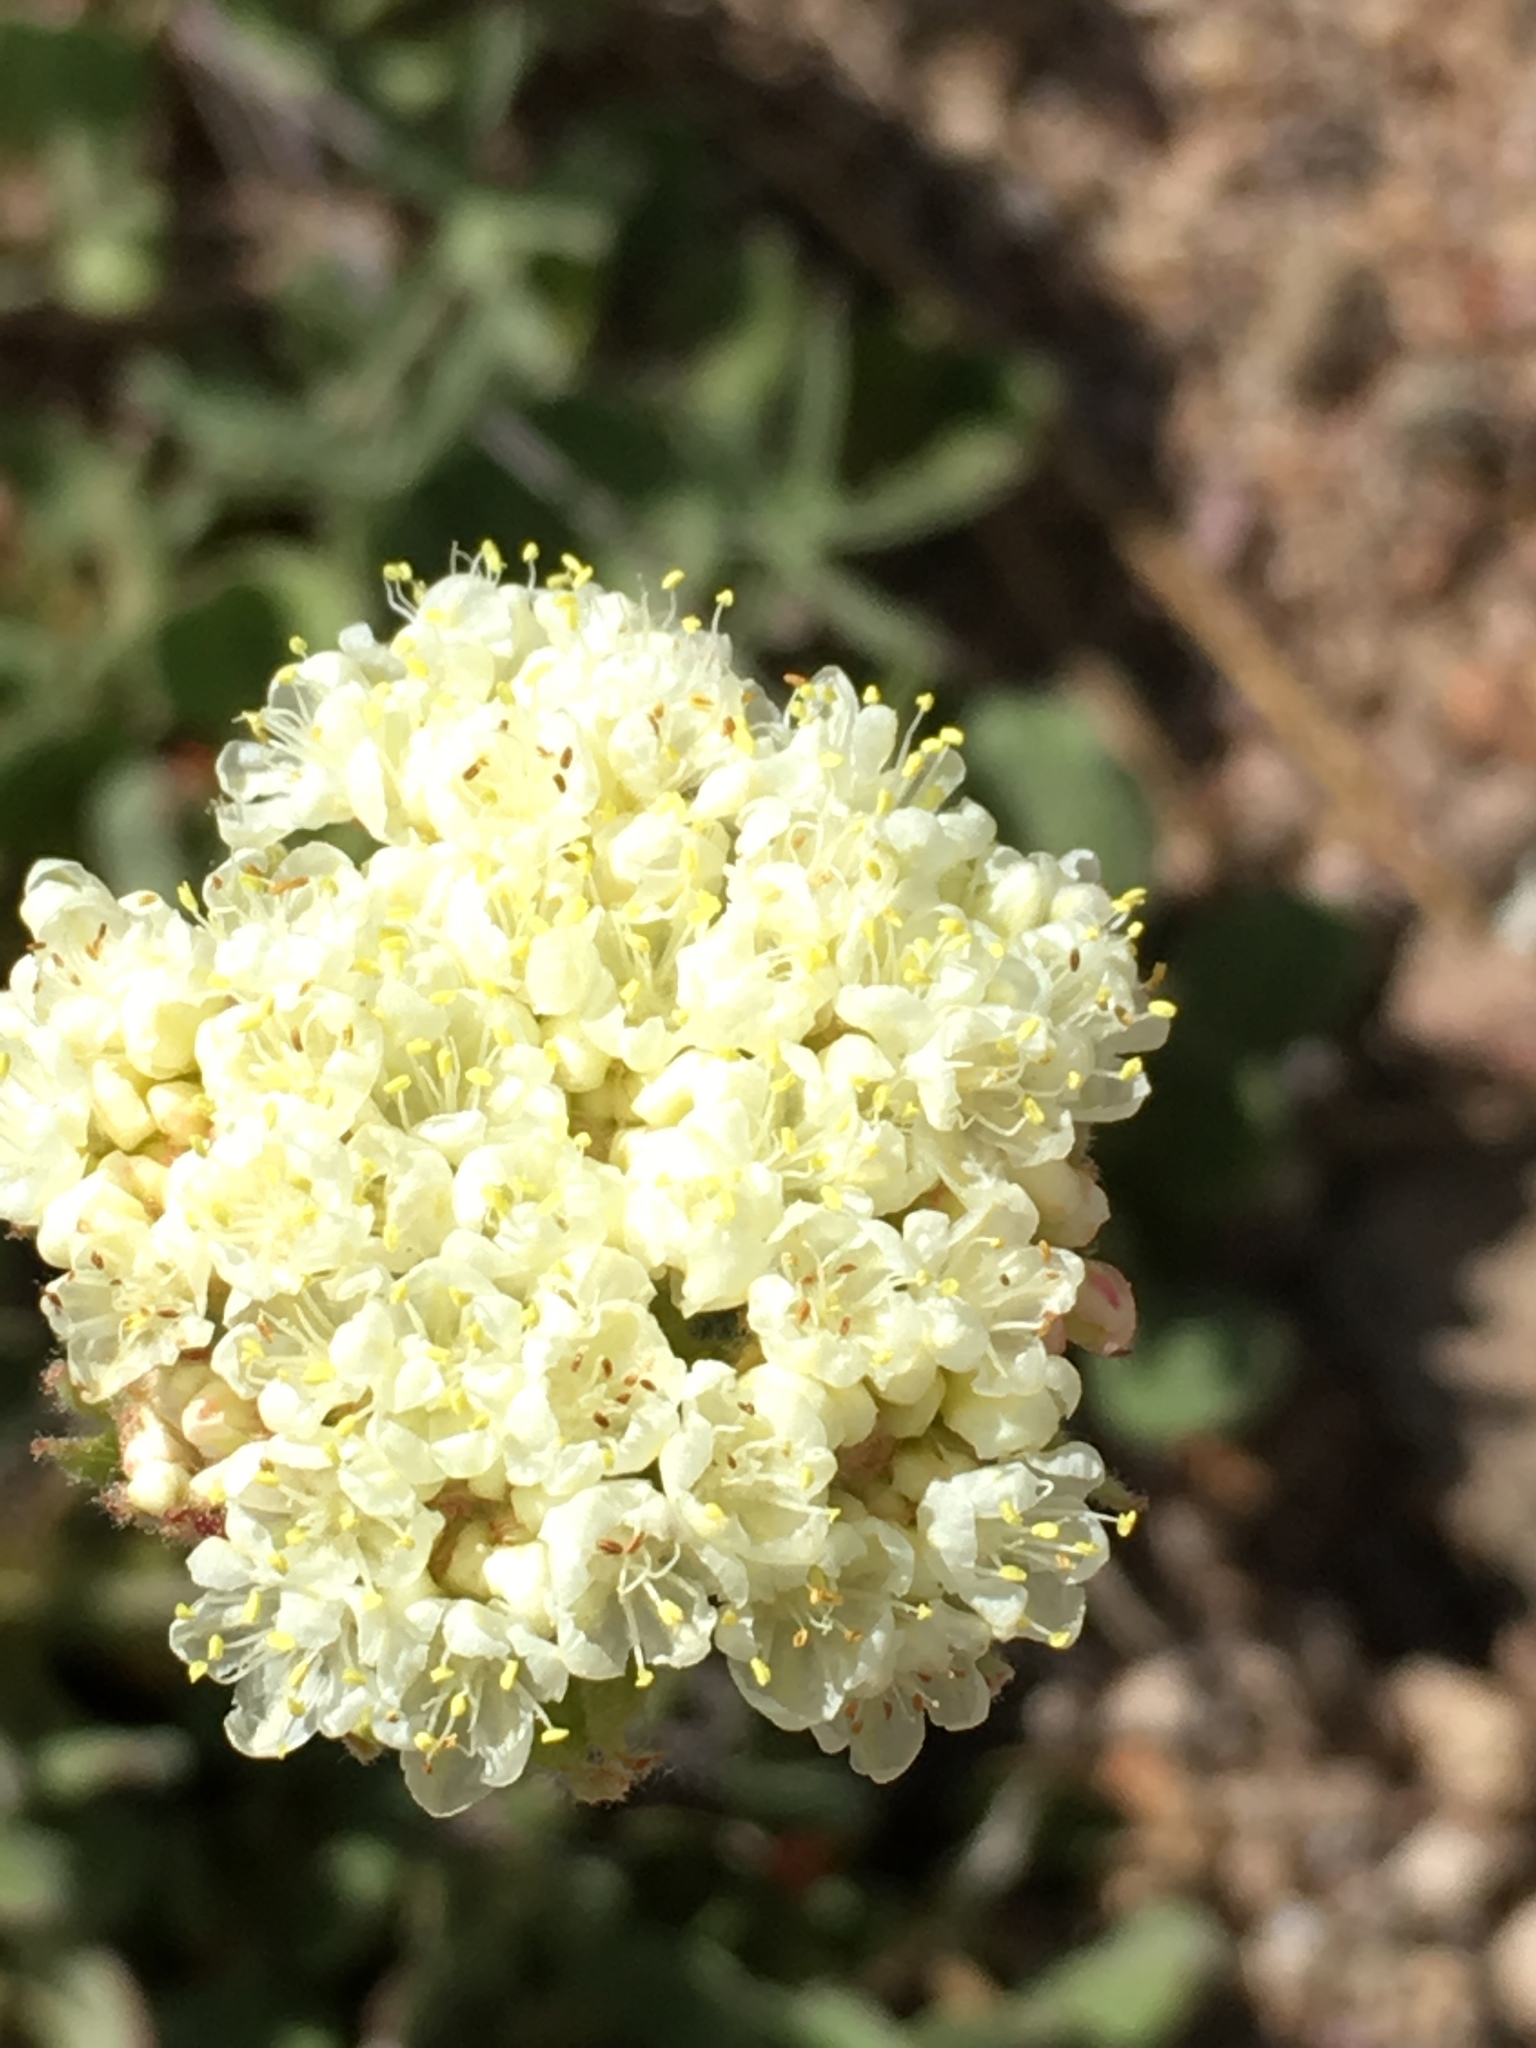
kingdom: Plantae
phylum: Tracheophyta
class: Magnoliopsida
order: Caryophyllales
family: Polygonaceae
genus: Eriogonum
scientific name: Eriogonum ursinum
